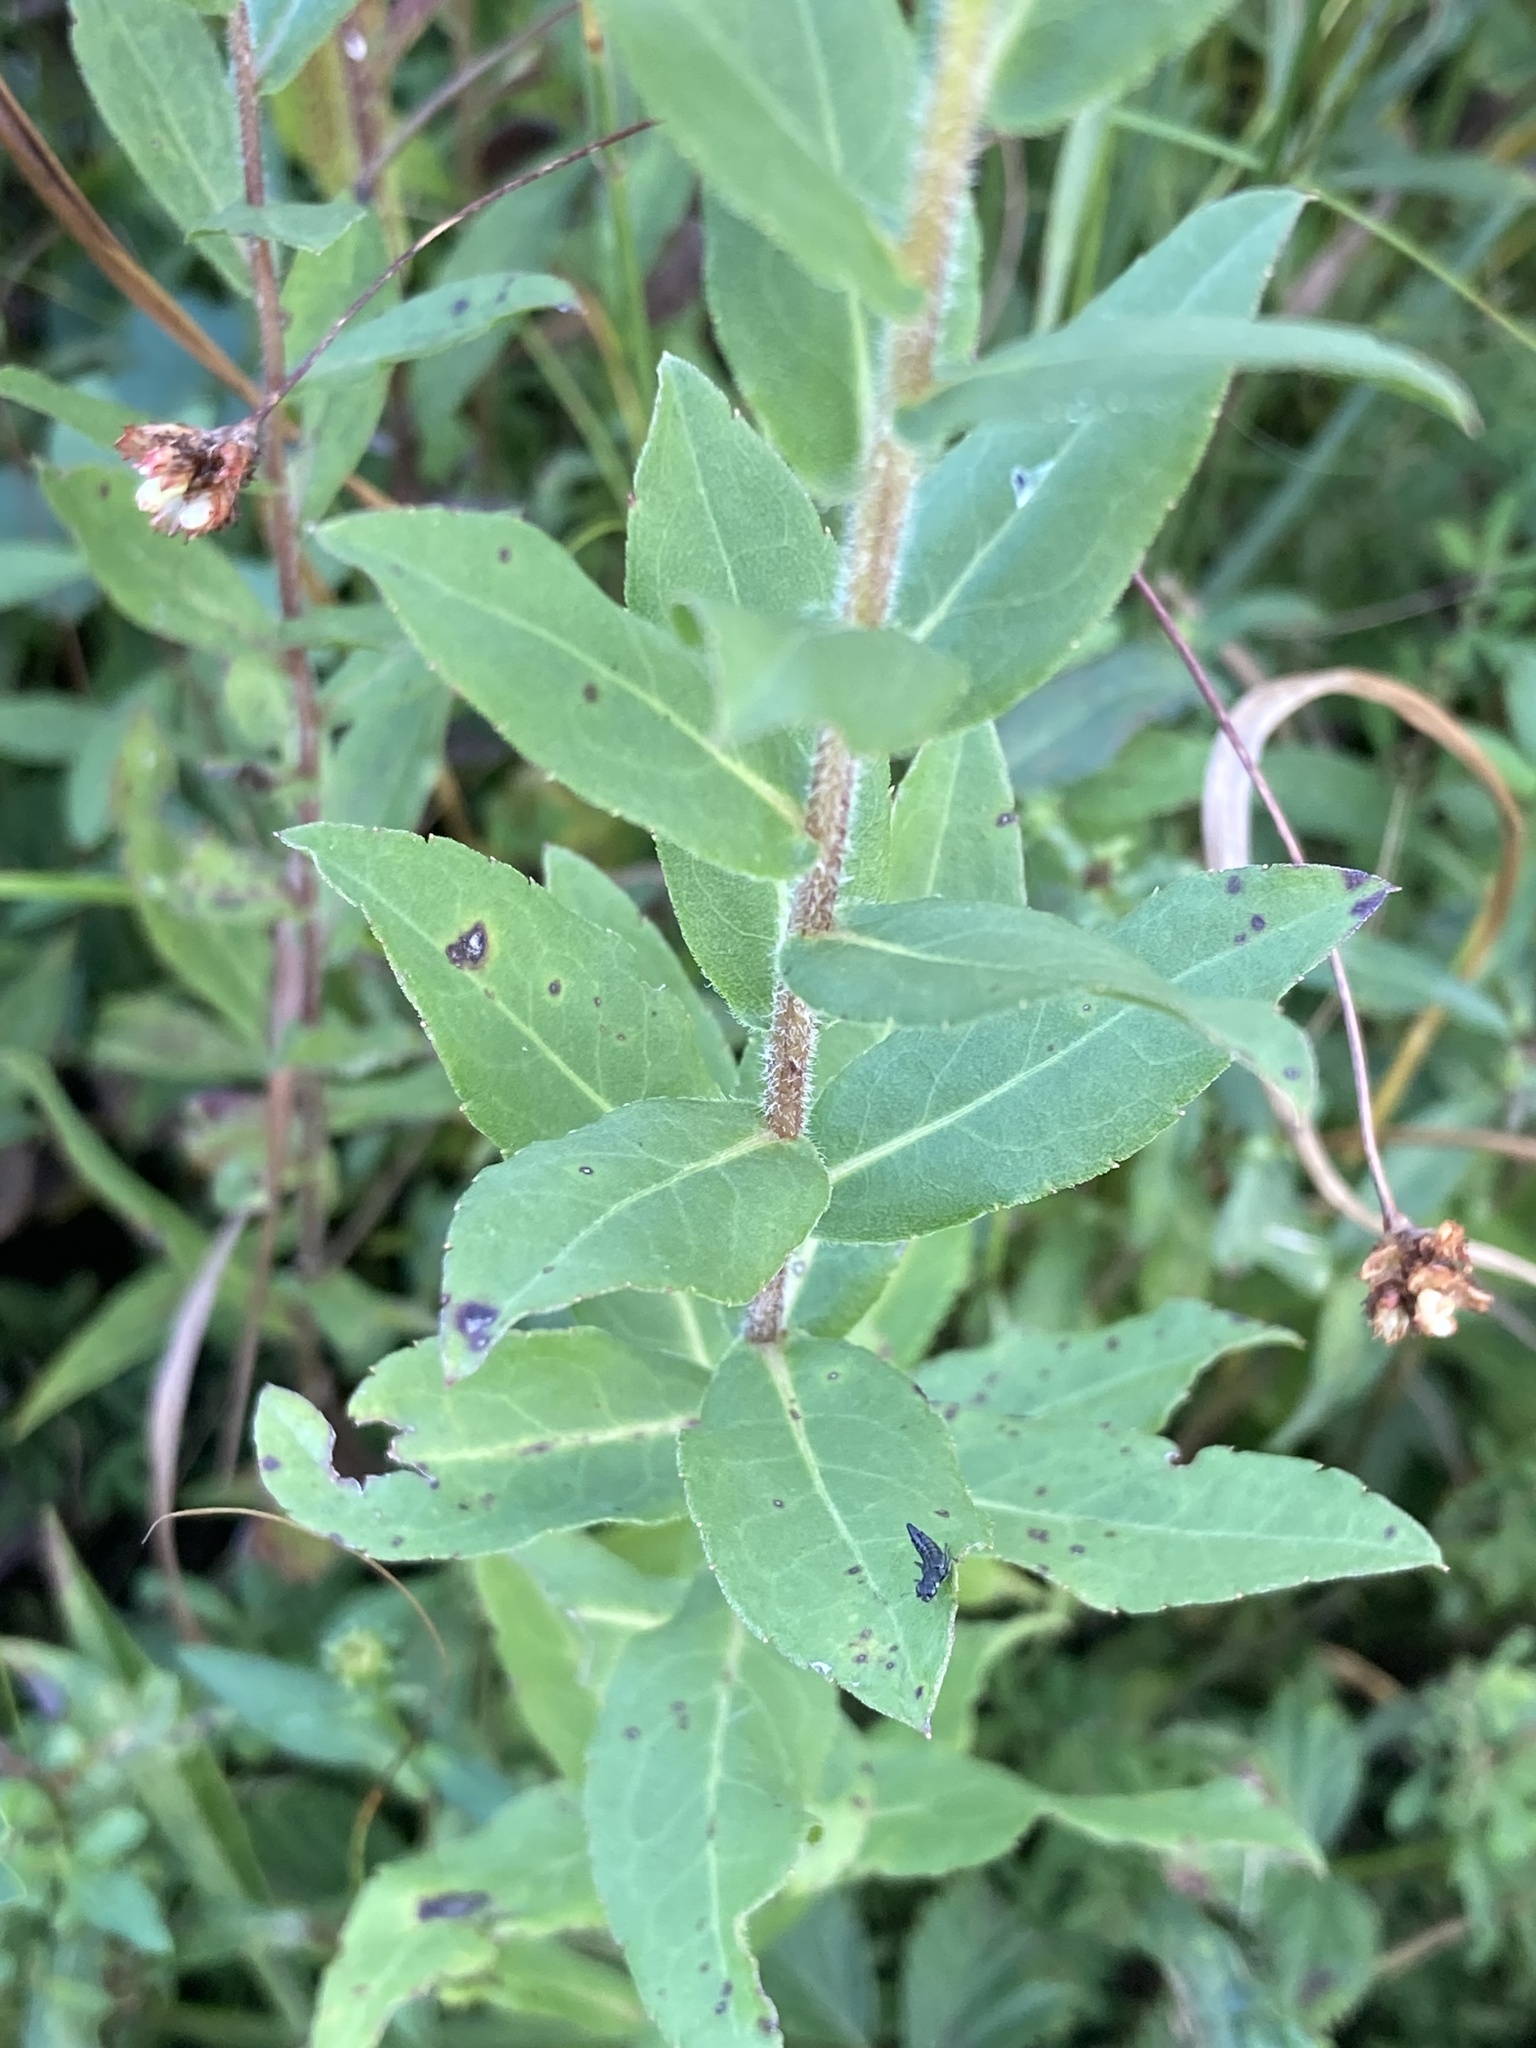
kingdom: Plantae
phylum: Tracheophyta
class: Magnoliopsida
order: Asterales
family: Asteraceae
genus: Solidago
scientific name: Solidago fistulosa
